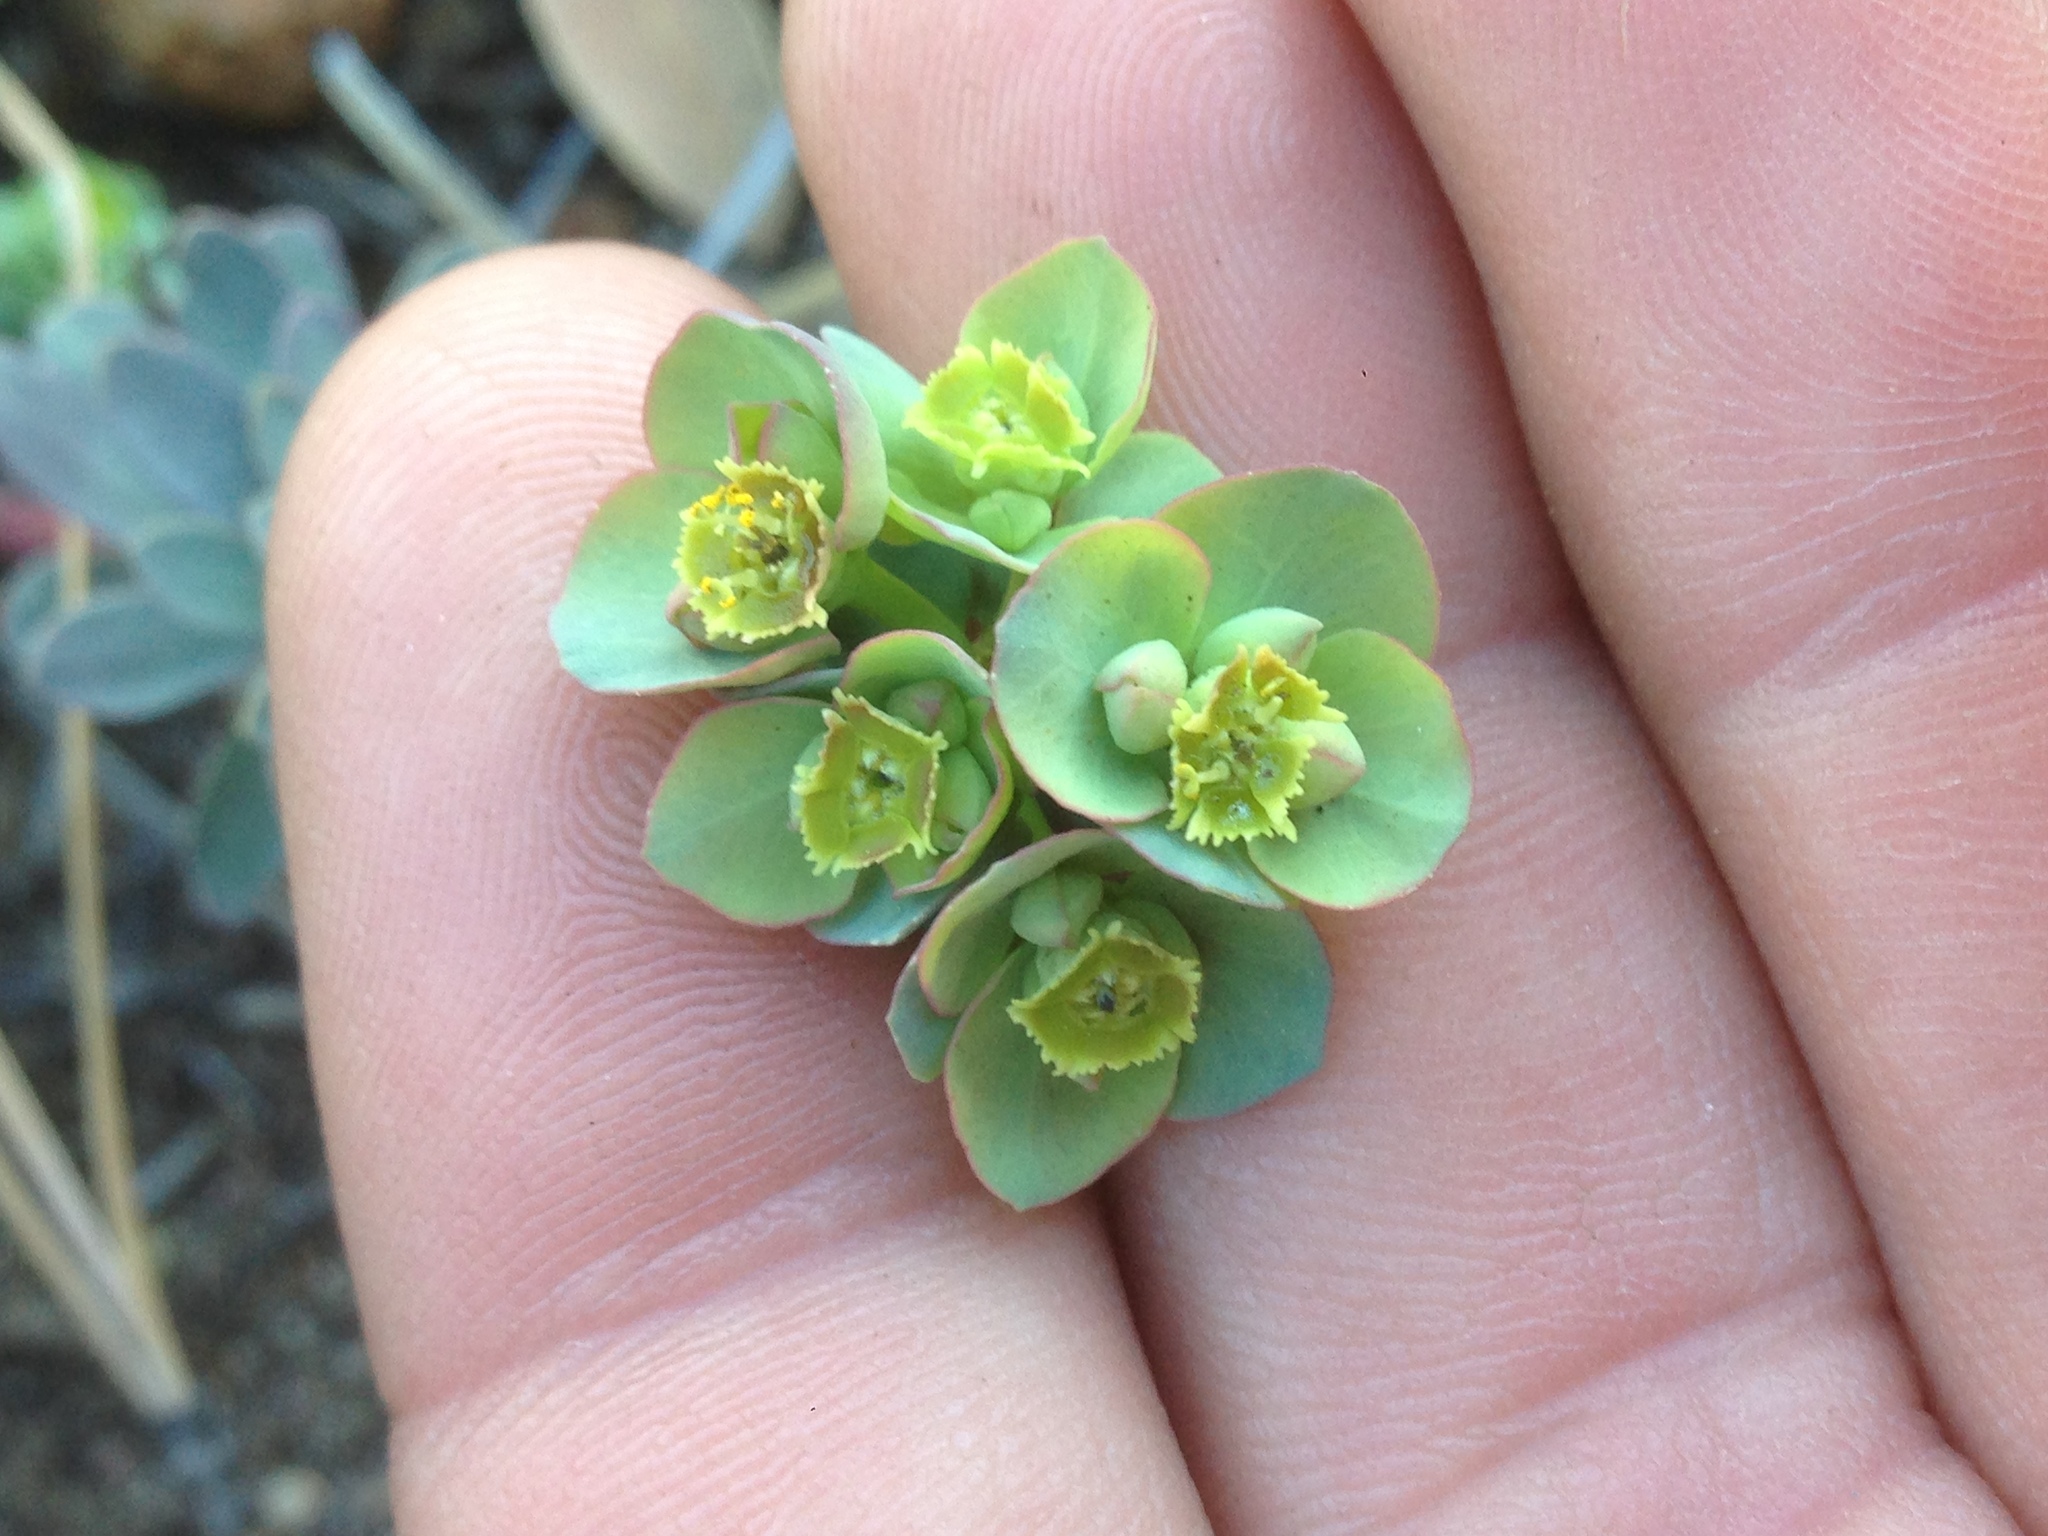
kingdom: Plantae
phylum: Tracheophyta
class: Magnoliopsida
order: Malpighiales
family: Euphorbiaceae
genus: Euphorbia
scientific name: Euphorbia lurida
